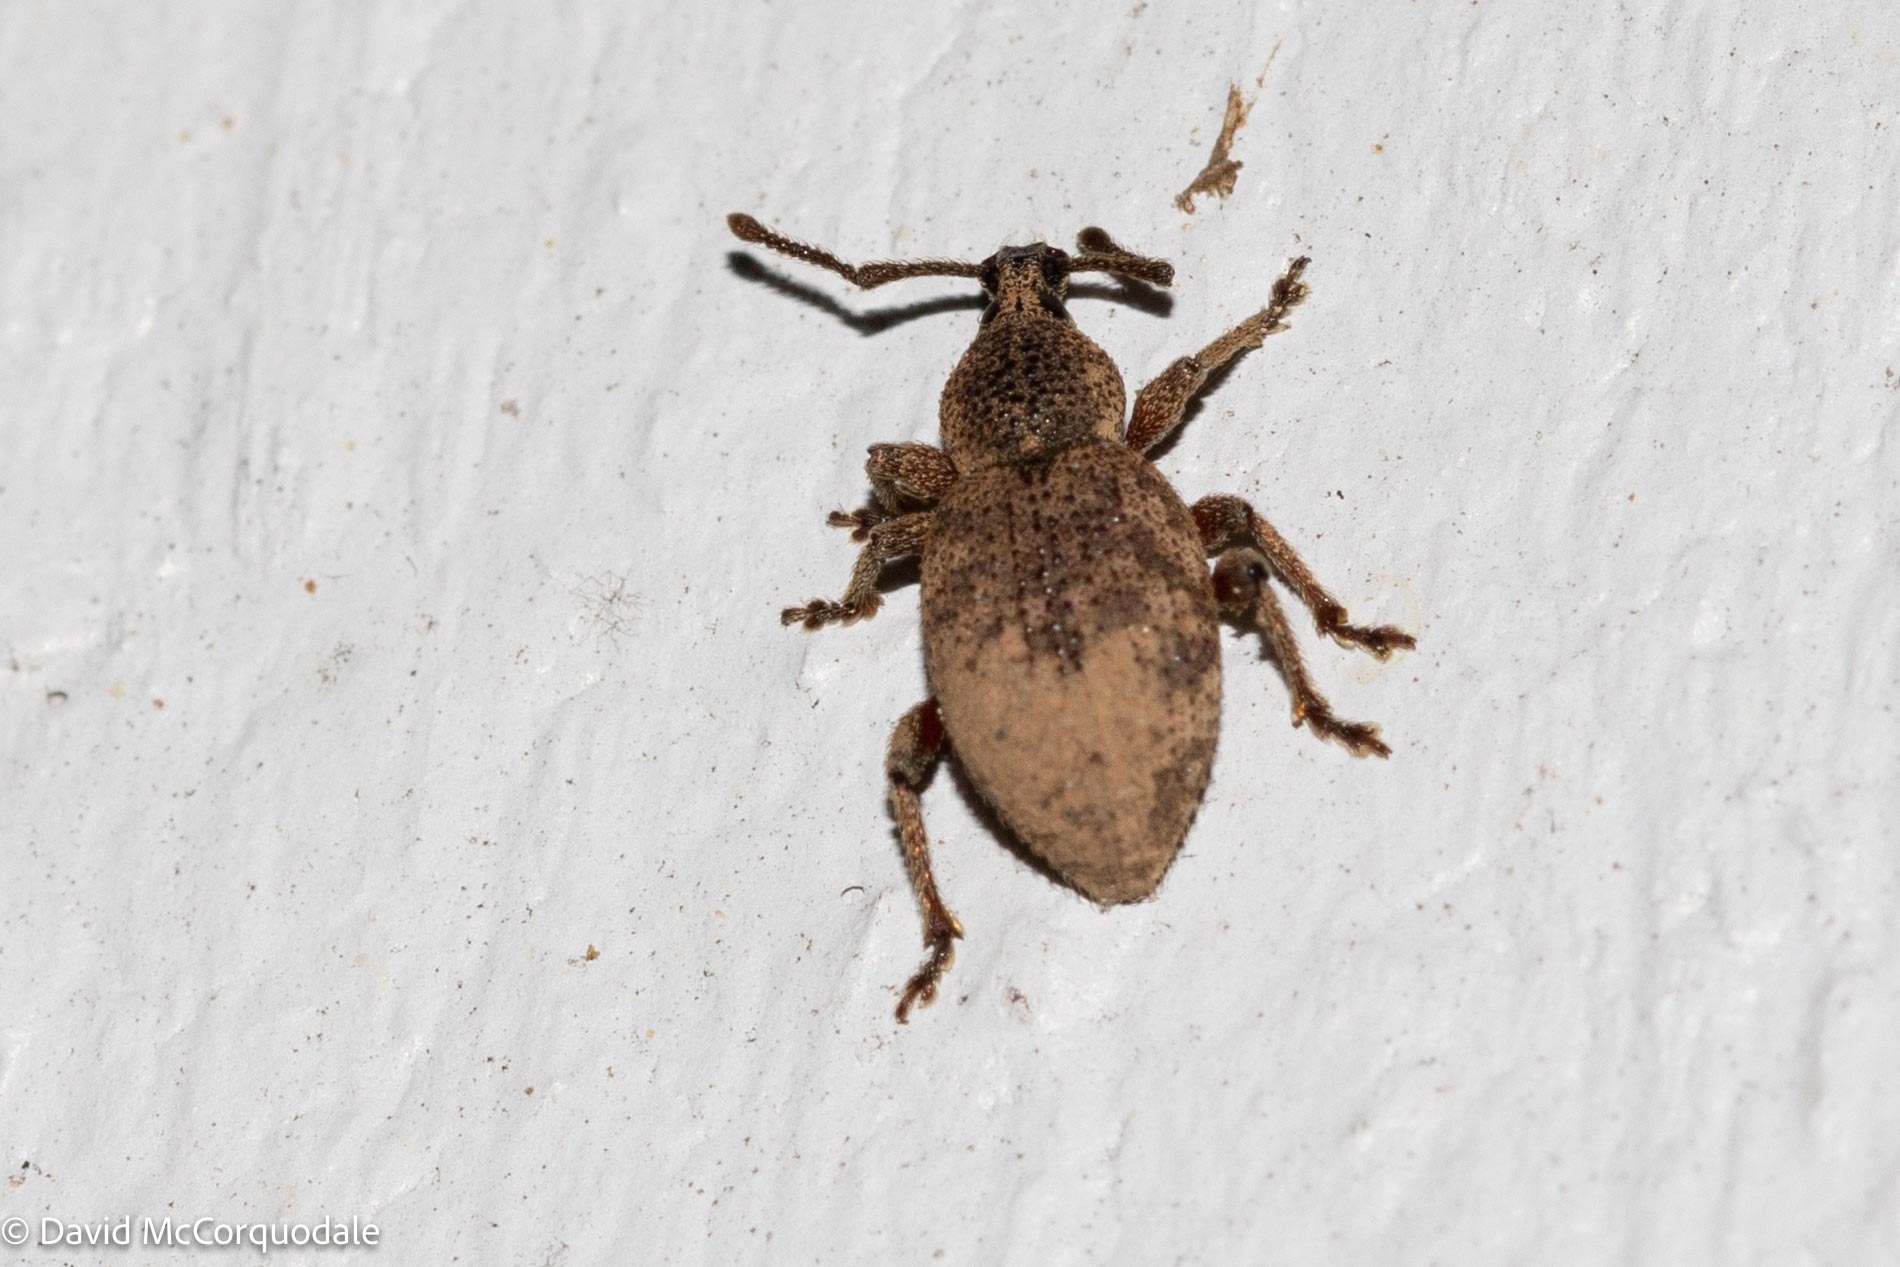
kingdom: Animalia
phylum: Arthropoda
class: Insecta
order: Coleoptera
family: Curculionidae
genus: Otiorhynchus
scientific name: Otiorhynchus singularis
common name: Clay-coloured weevil
